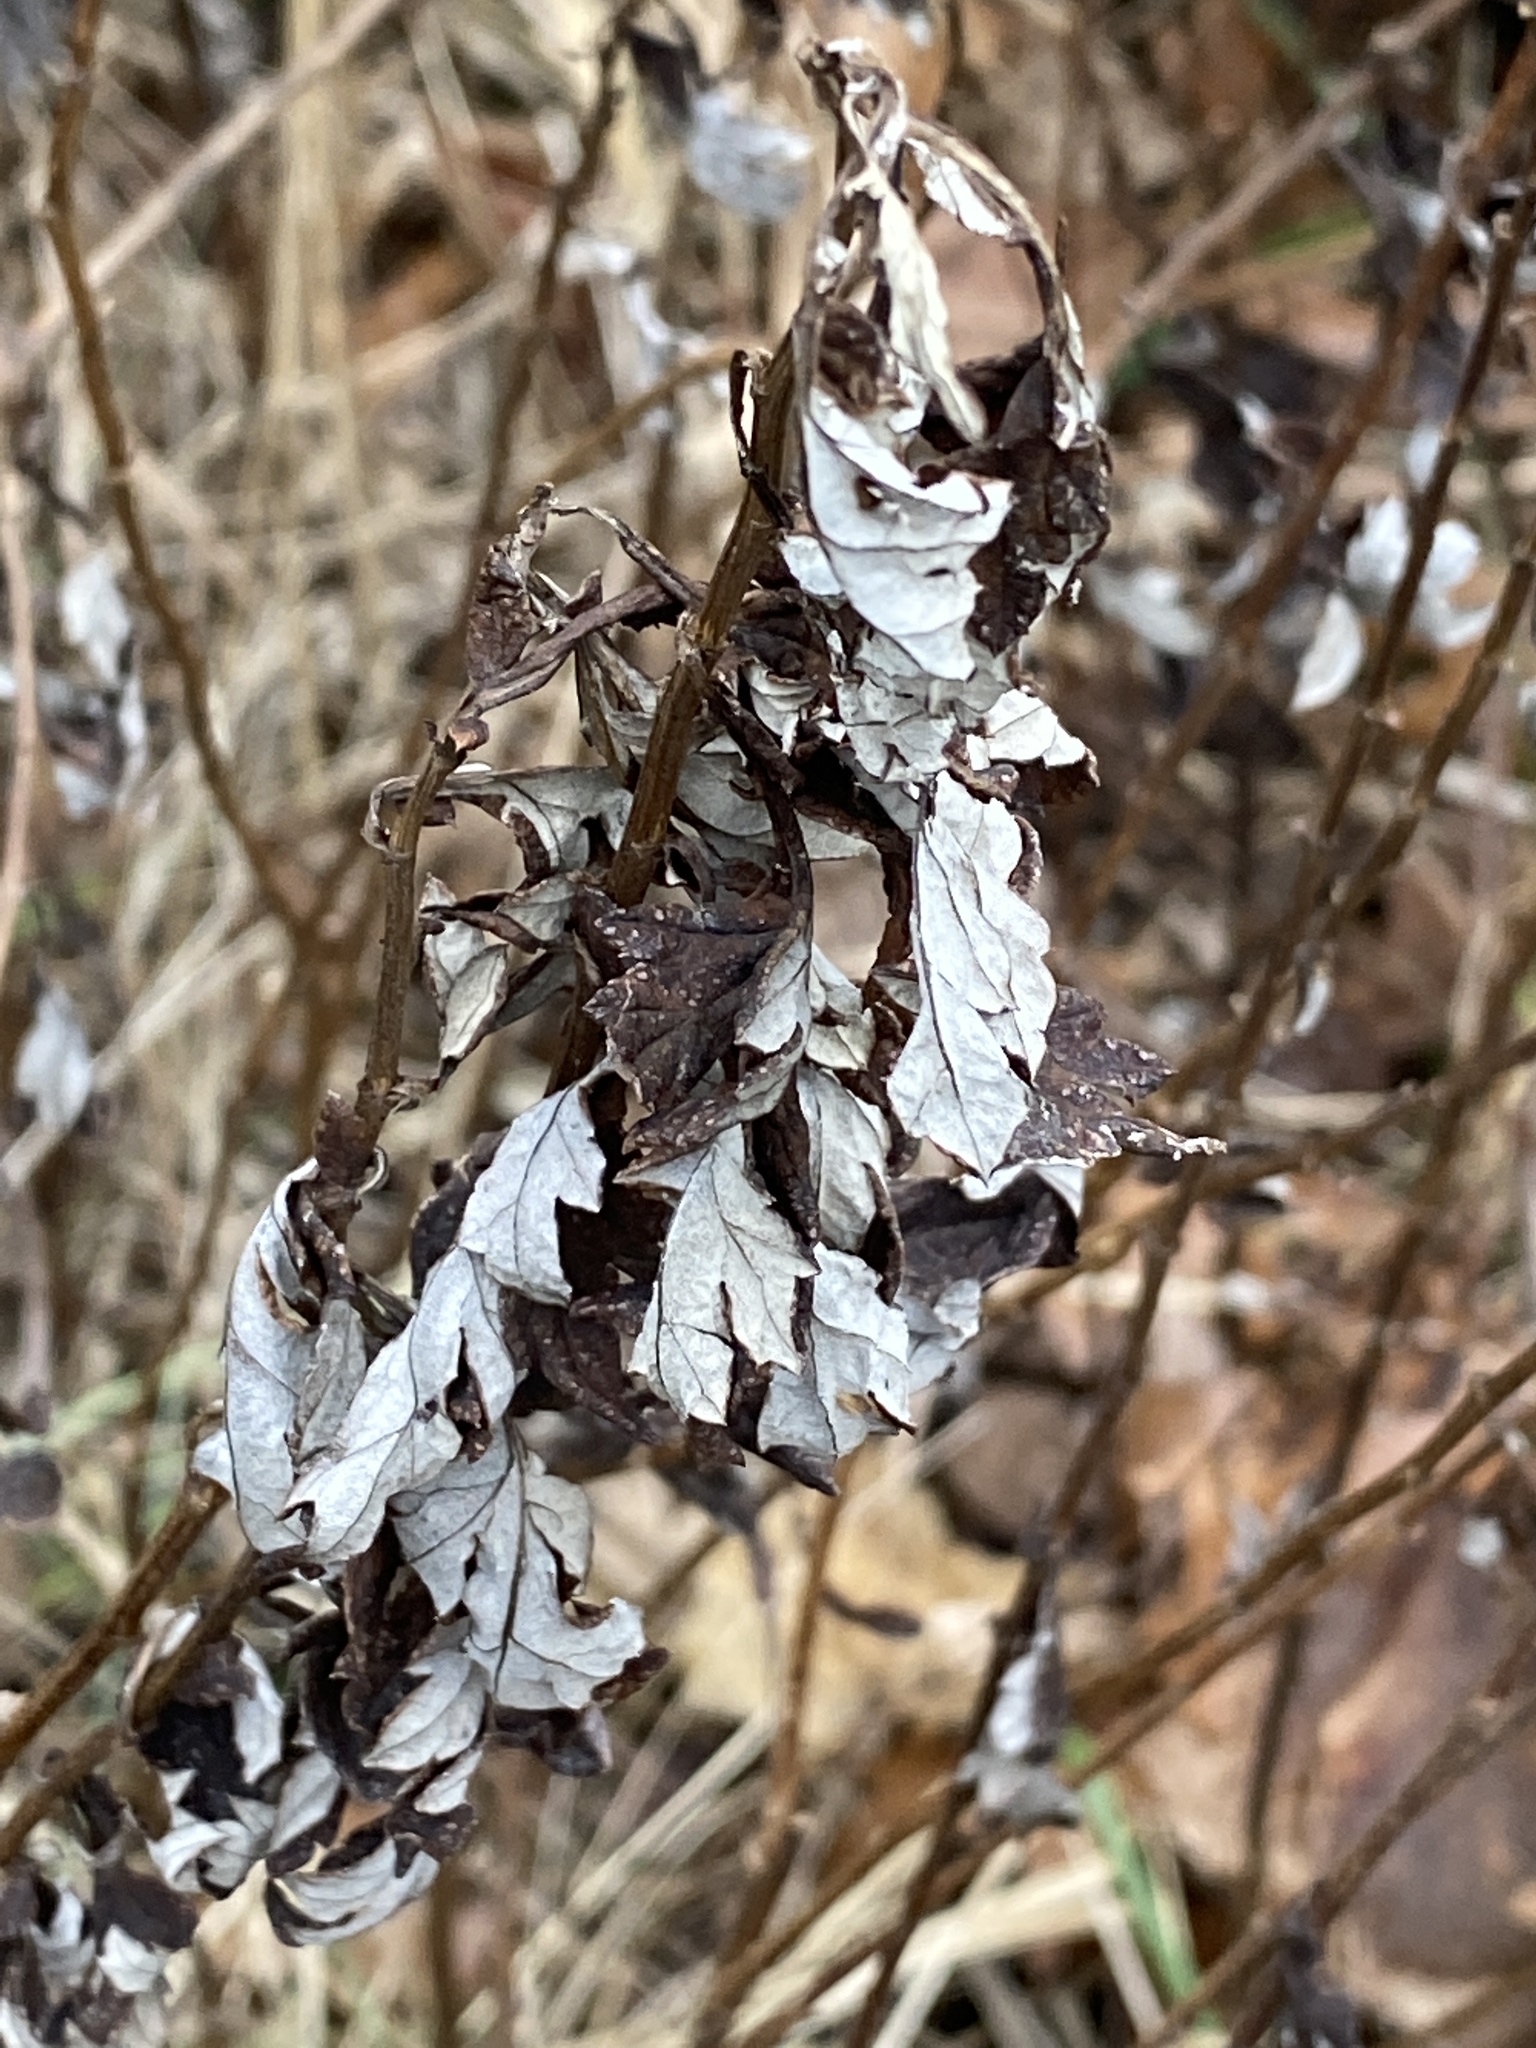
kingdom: Plantae
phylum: Tracheophyta
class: Magnoliopsida
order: Asterales
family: Asteraceae
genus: Artemisia
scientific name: Artemisia vulgaris
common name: Mugwort
